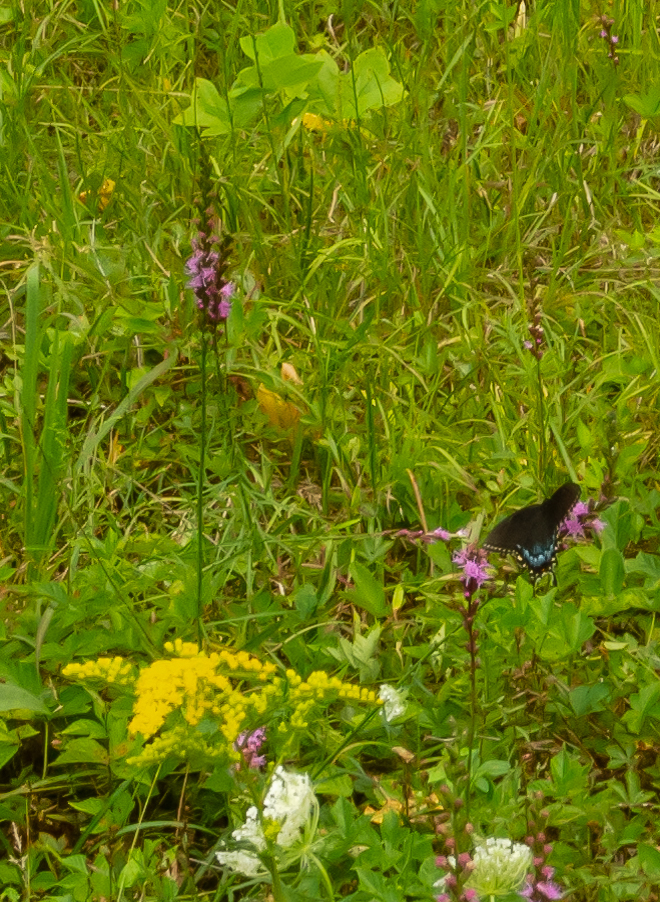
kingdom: Animalia
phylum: Arthropoda
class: Insecta
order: Lepidoptera
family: Papilionidae
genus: Papilio
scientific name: Papilio glaucus
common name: Tiger swallowtail
